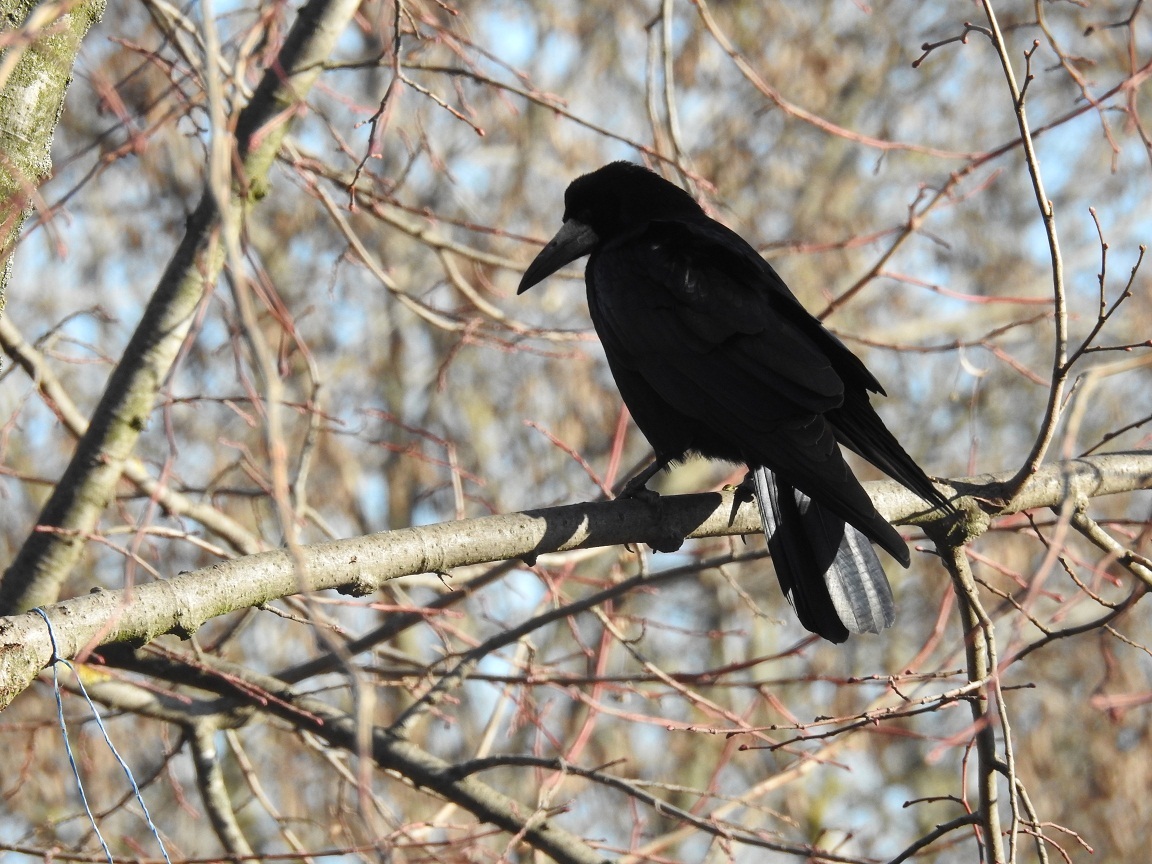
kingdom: Animalia
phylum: Chordata
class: Aves
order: Passeriformes
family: Corvidae
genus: Corvus
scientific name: Corvus frugilegus
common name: Rook
